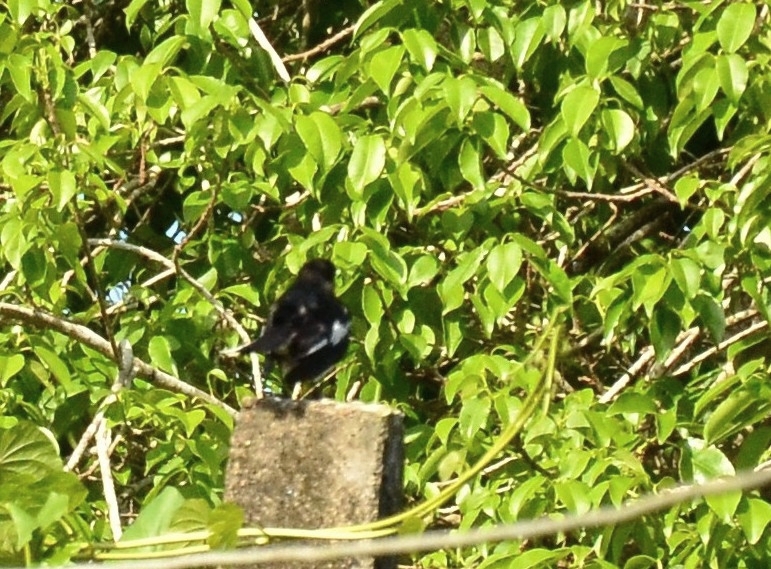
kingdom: Animalia
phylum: Chordata
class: Aves
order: Passeriformes
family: Muscicapidae
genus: Copsychus
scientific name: Copsychus saularis
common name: Oriental magpie-robin
